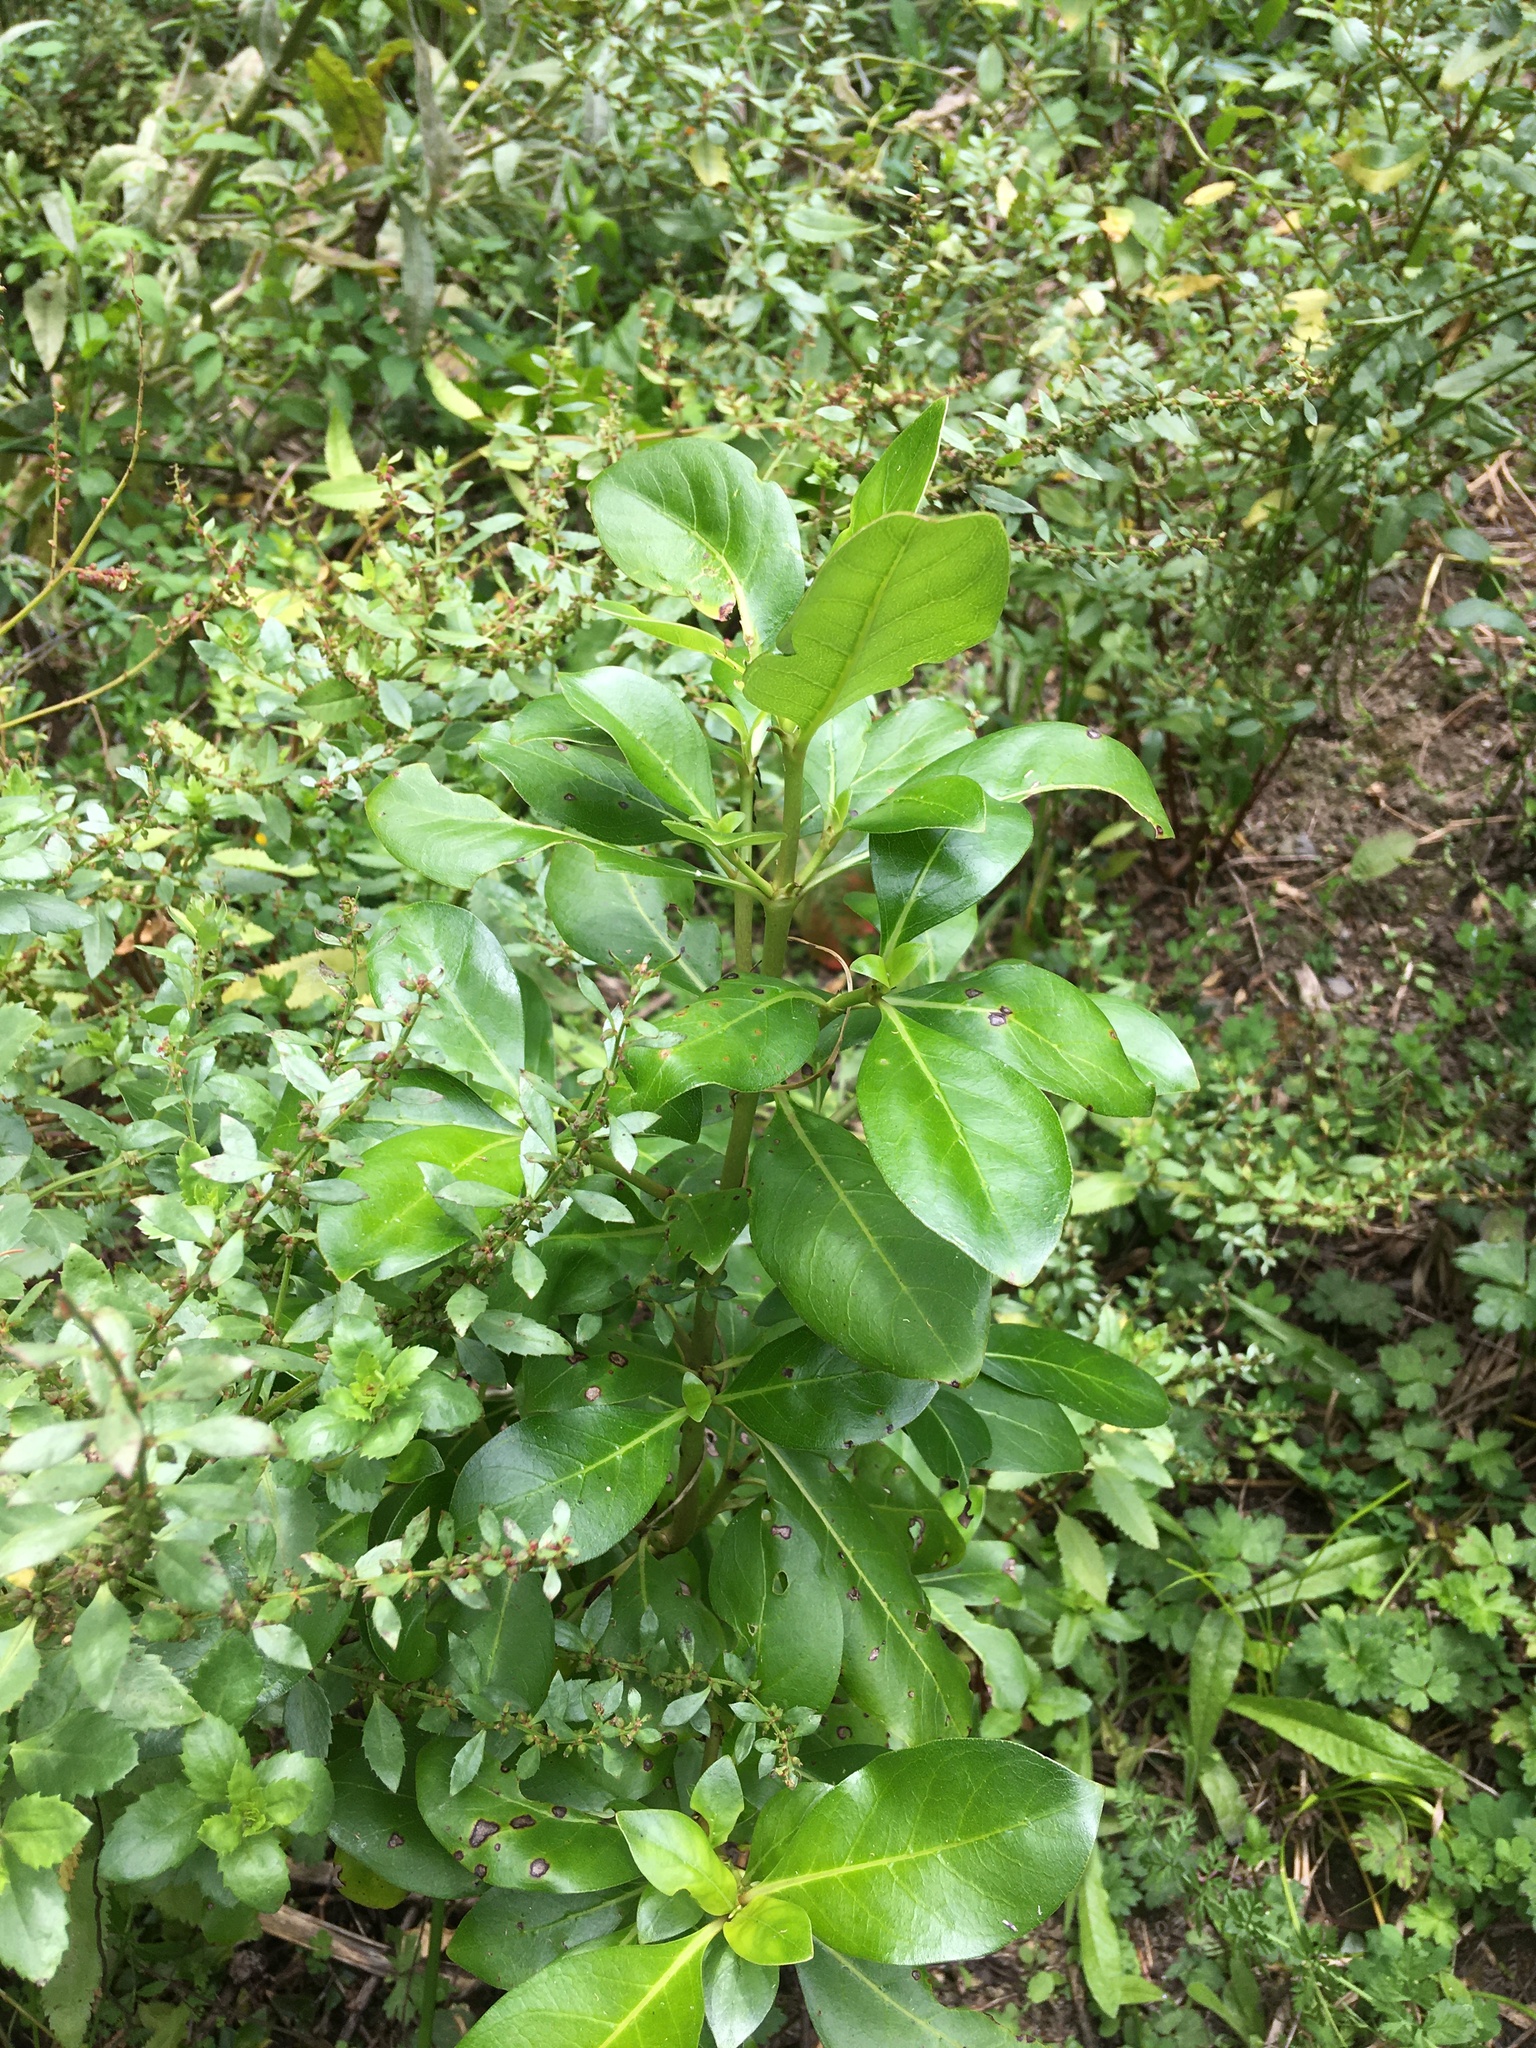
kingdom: Plantae
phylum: Tracheophyta
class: Magnoliopsida
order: Gentianales
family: Rubiaceae
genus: Coprosma
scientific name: Coprosma robusta
